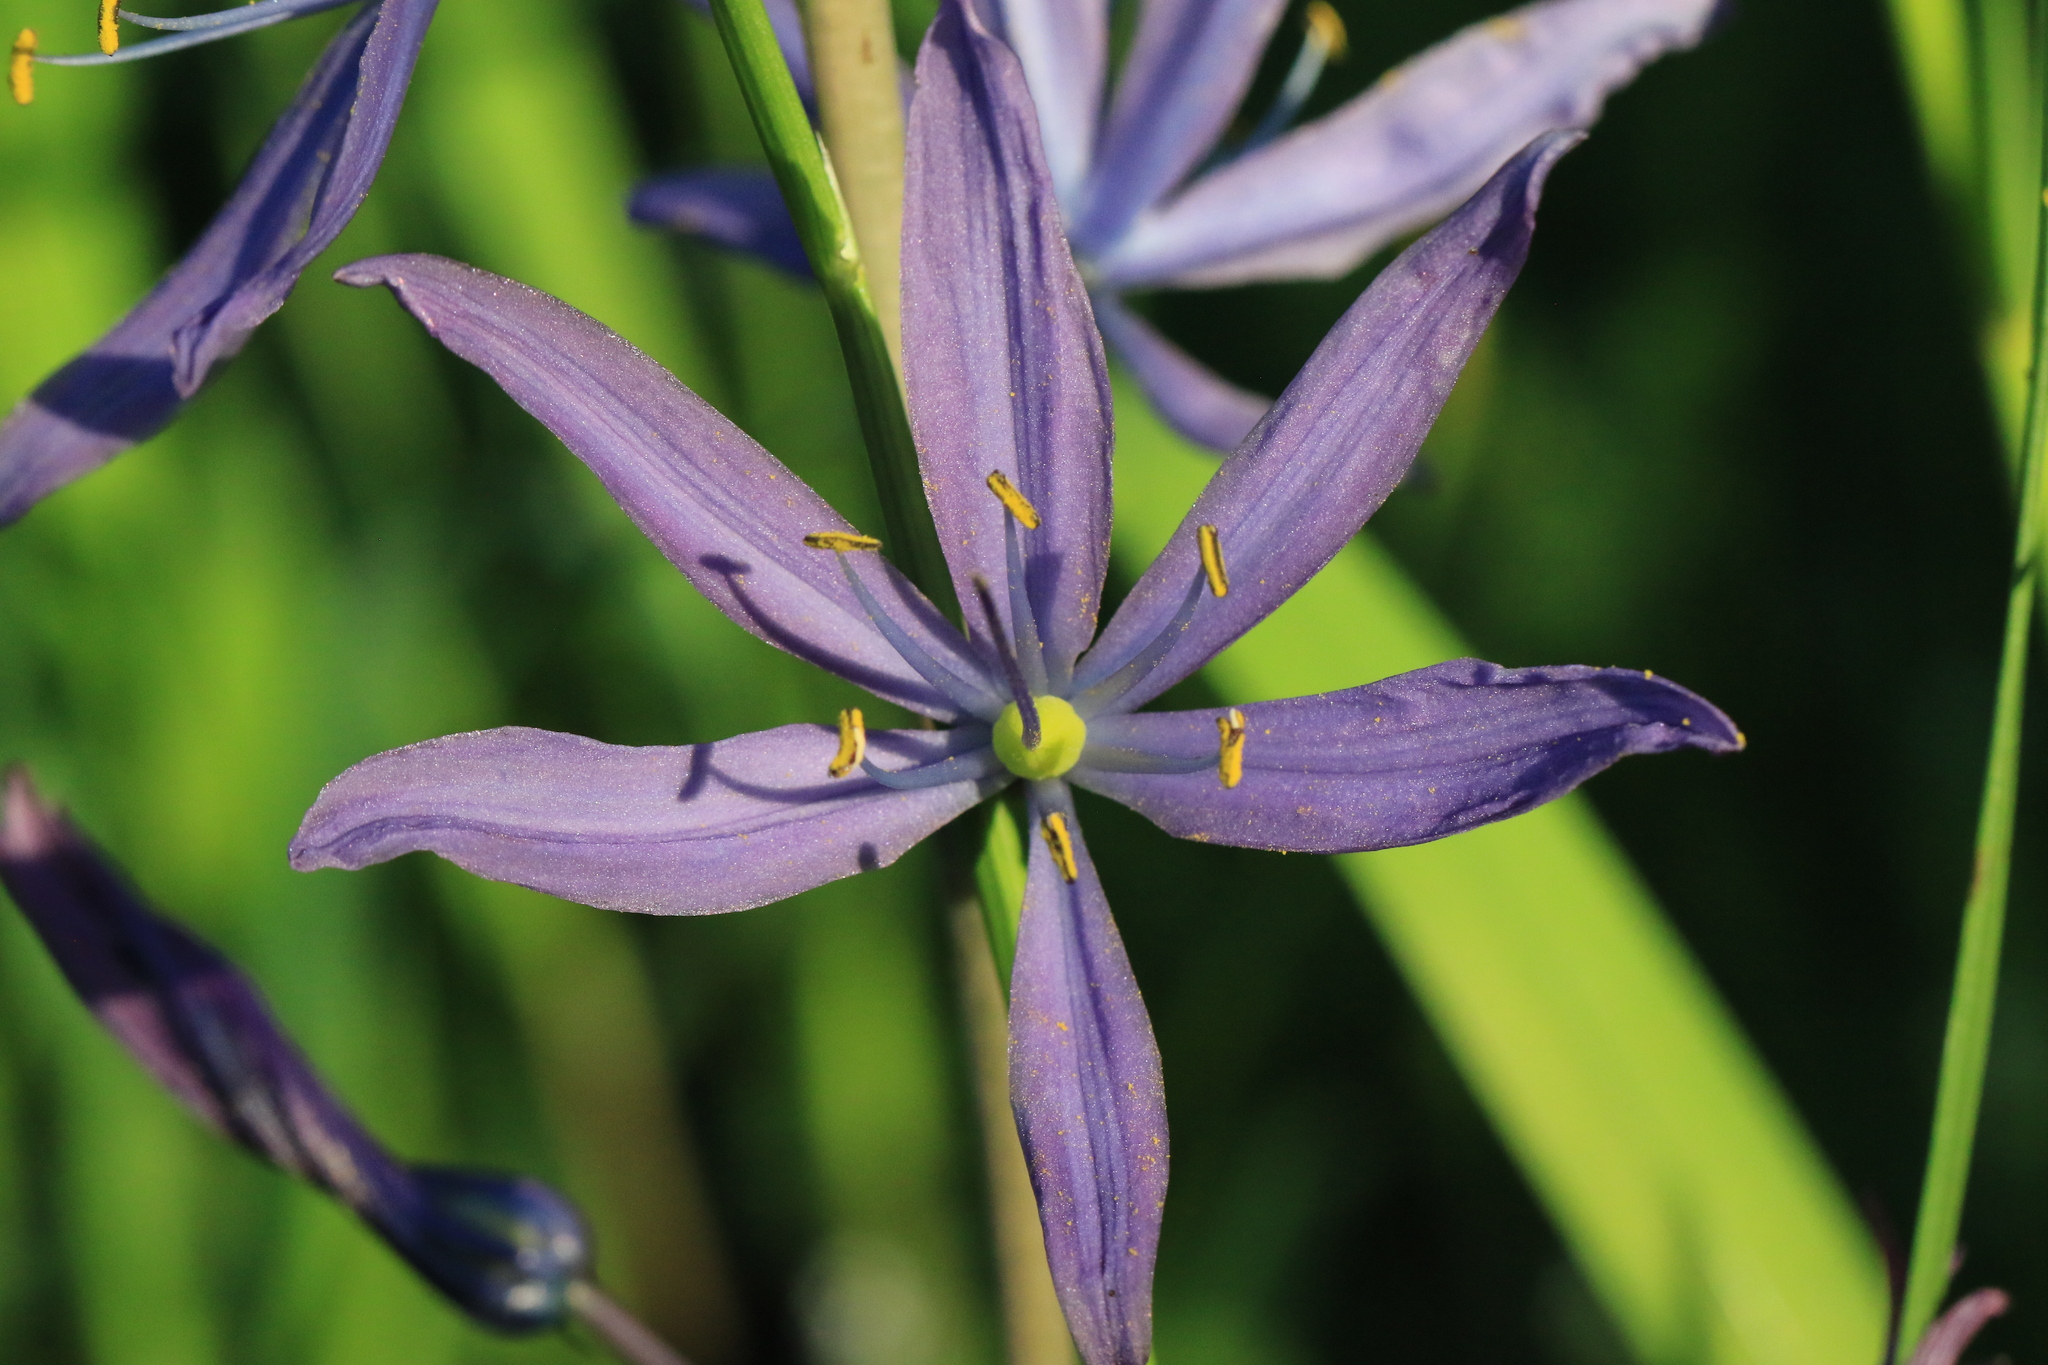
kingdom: Plantae
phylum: Tracheophyta
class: Liliopsida
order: Asparagales
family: Asparagaceae
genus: Camassia
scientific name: Camassia leichtlinii
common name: Leichtlin's camas
